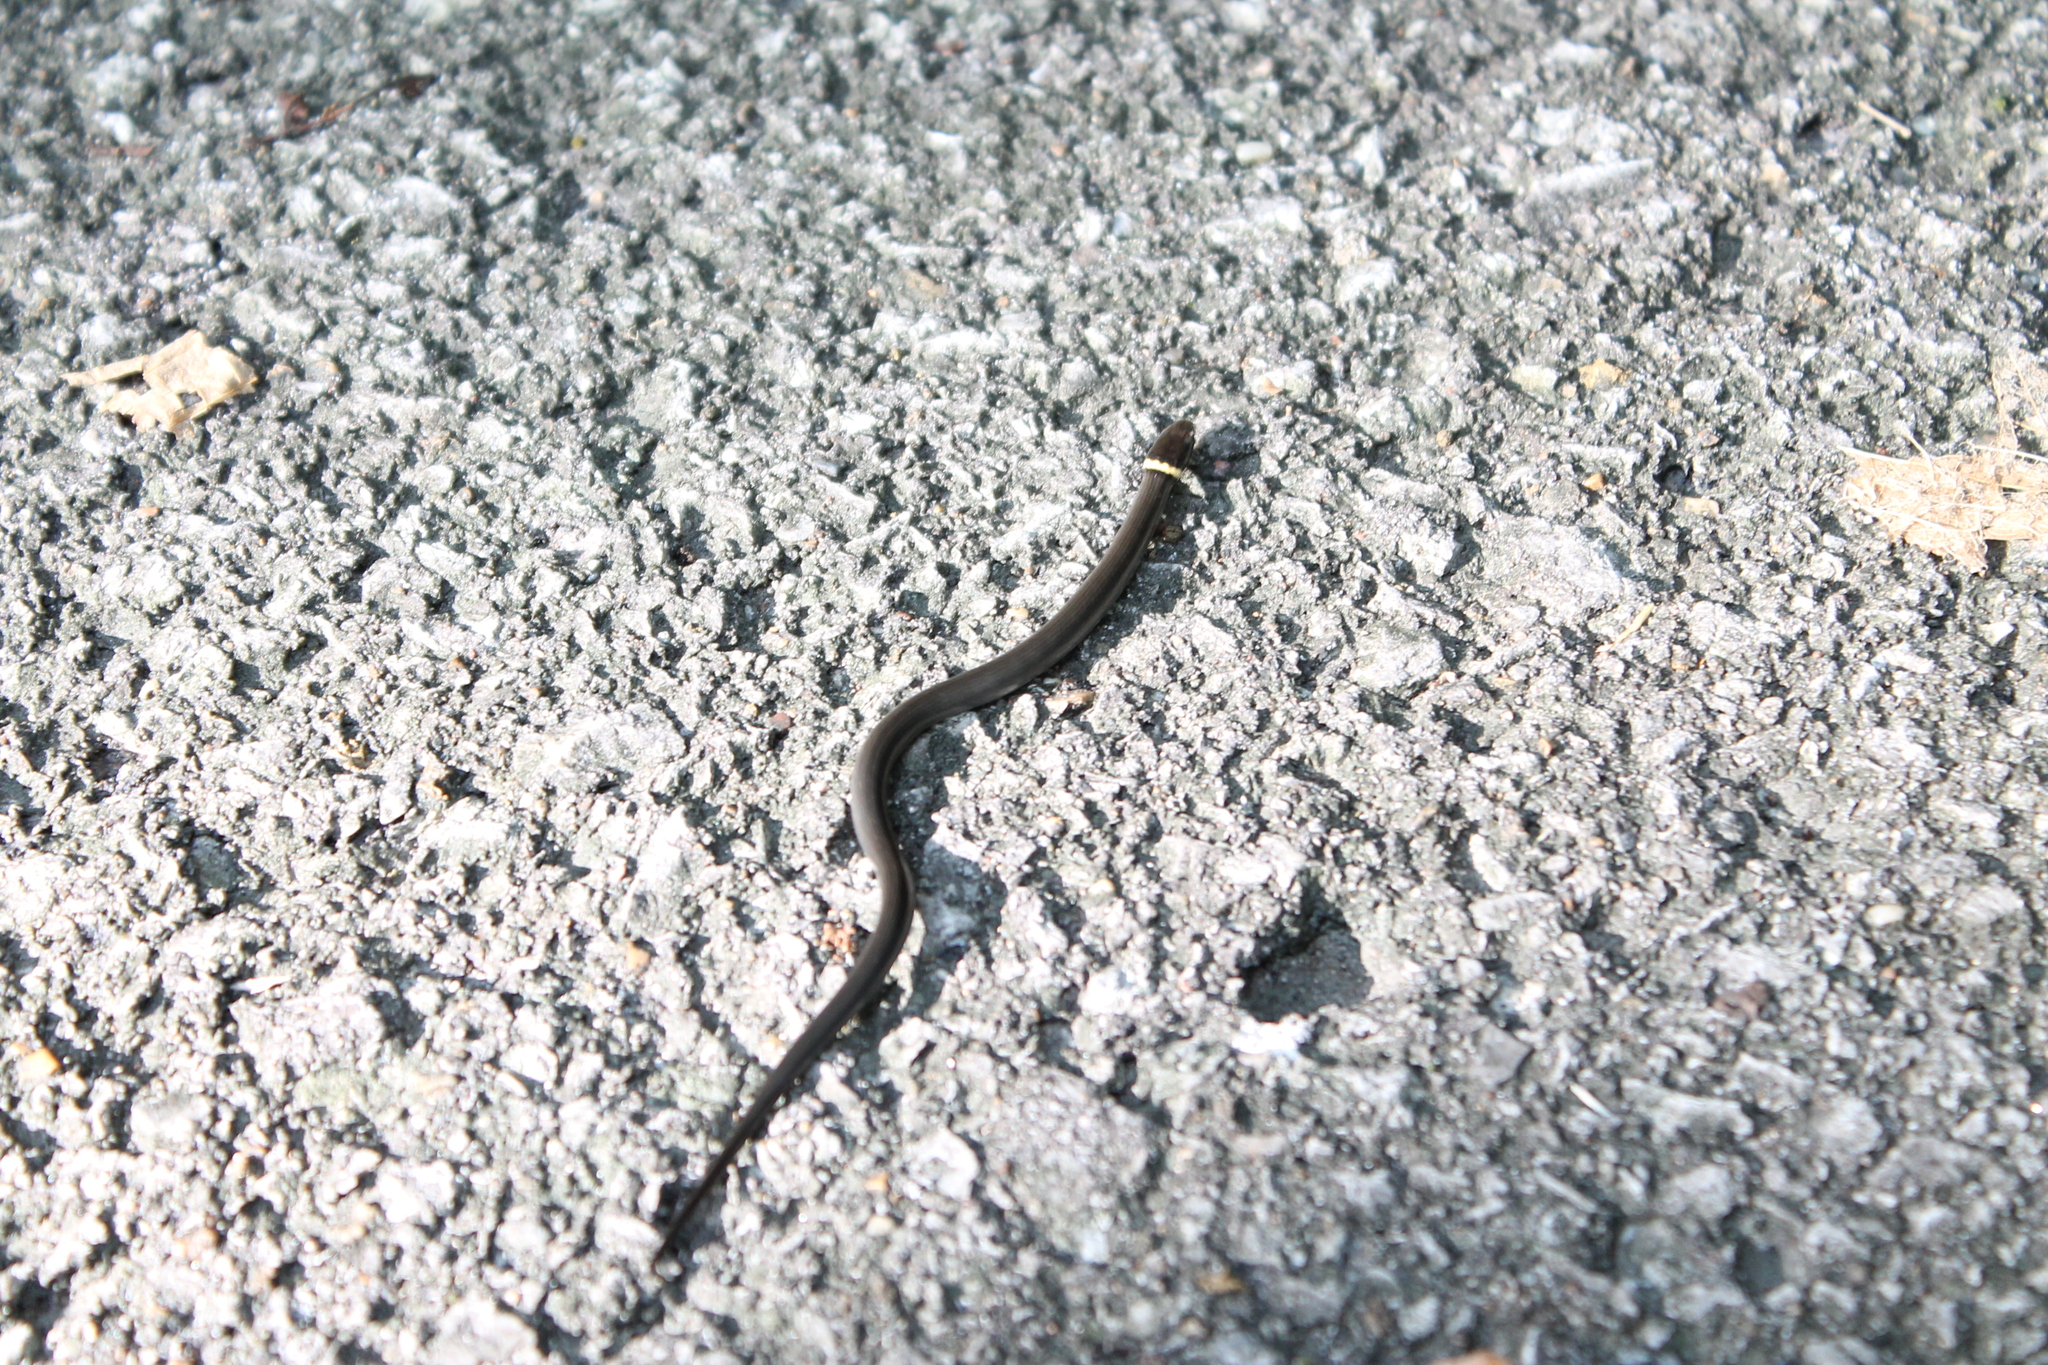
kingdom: Animalia
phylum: Chordata
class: Squamata
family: Colubridae
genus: Diadophis
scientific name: Diadophis punctatus
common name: Ringneck snake
